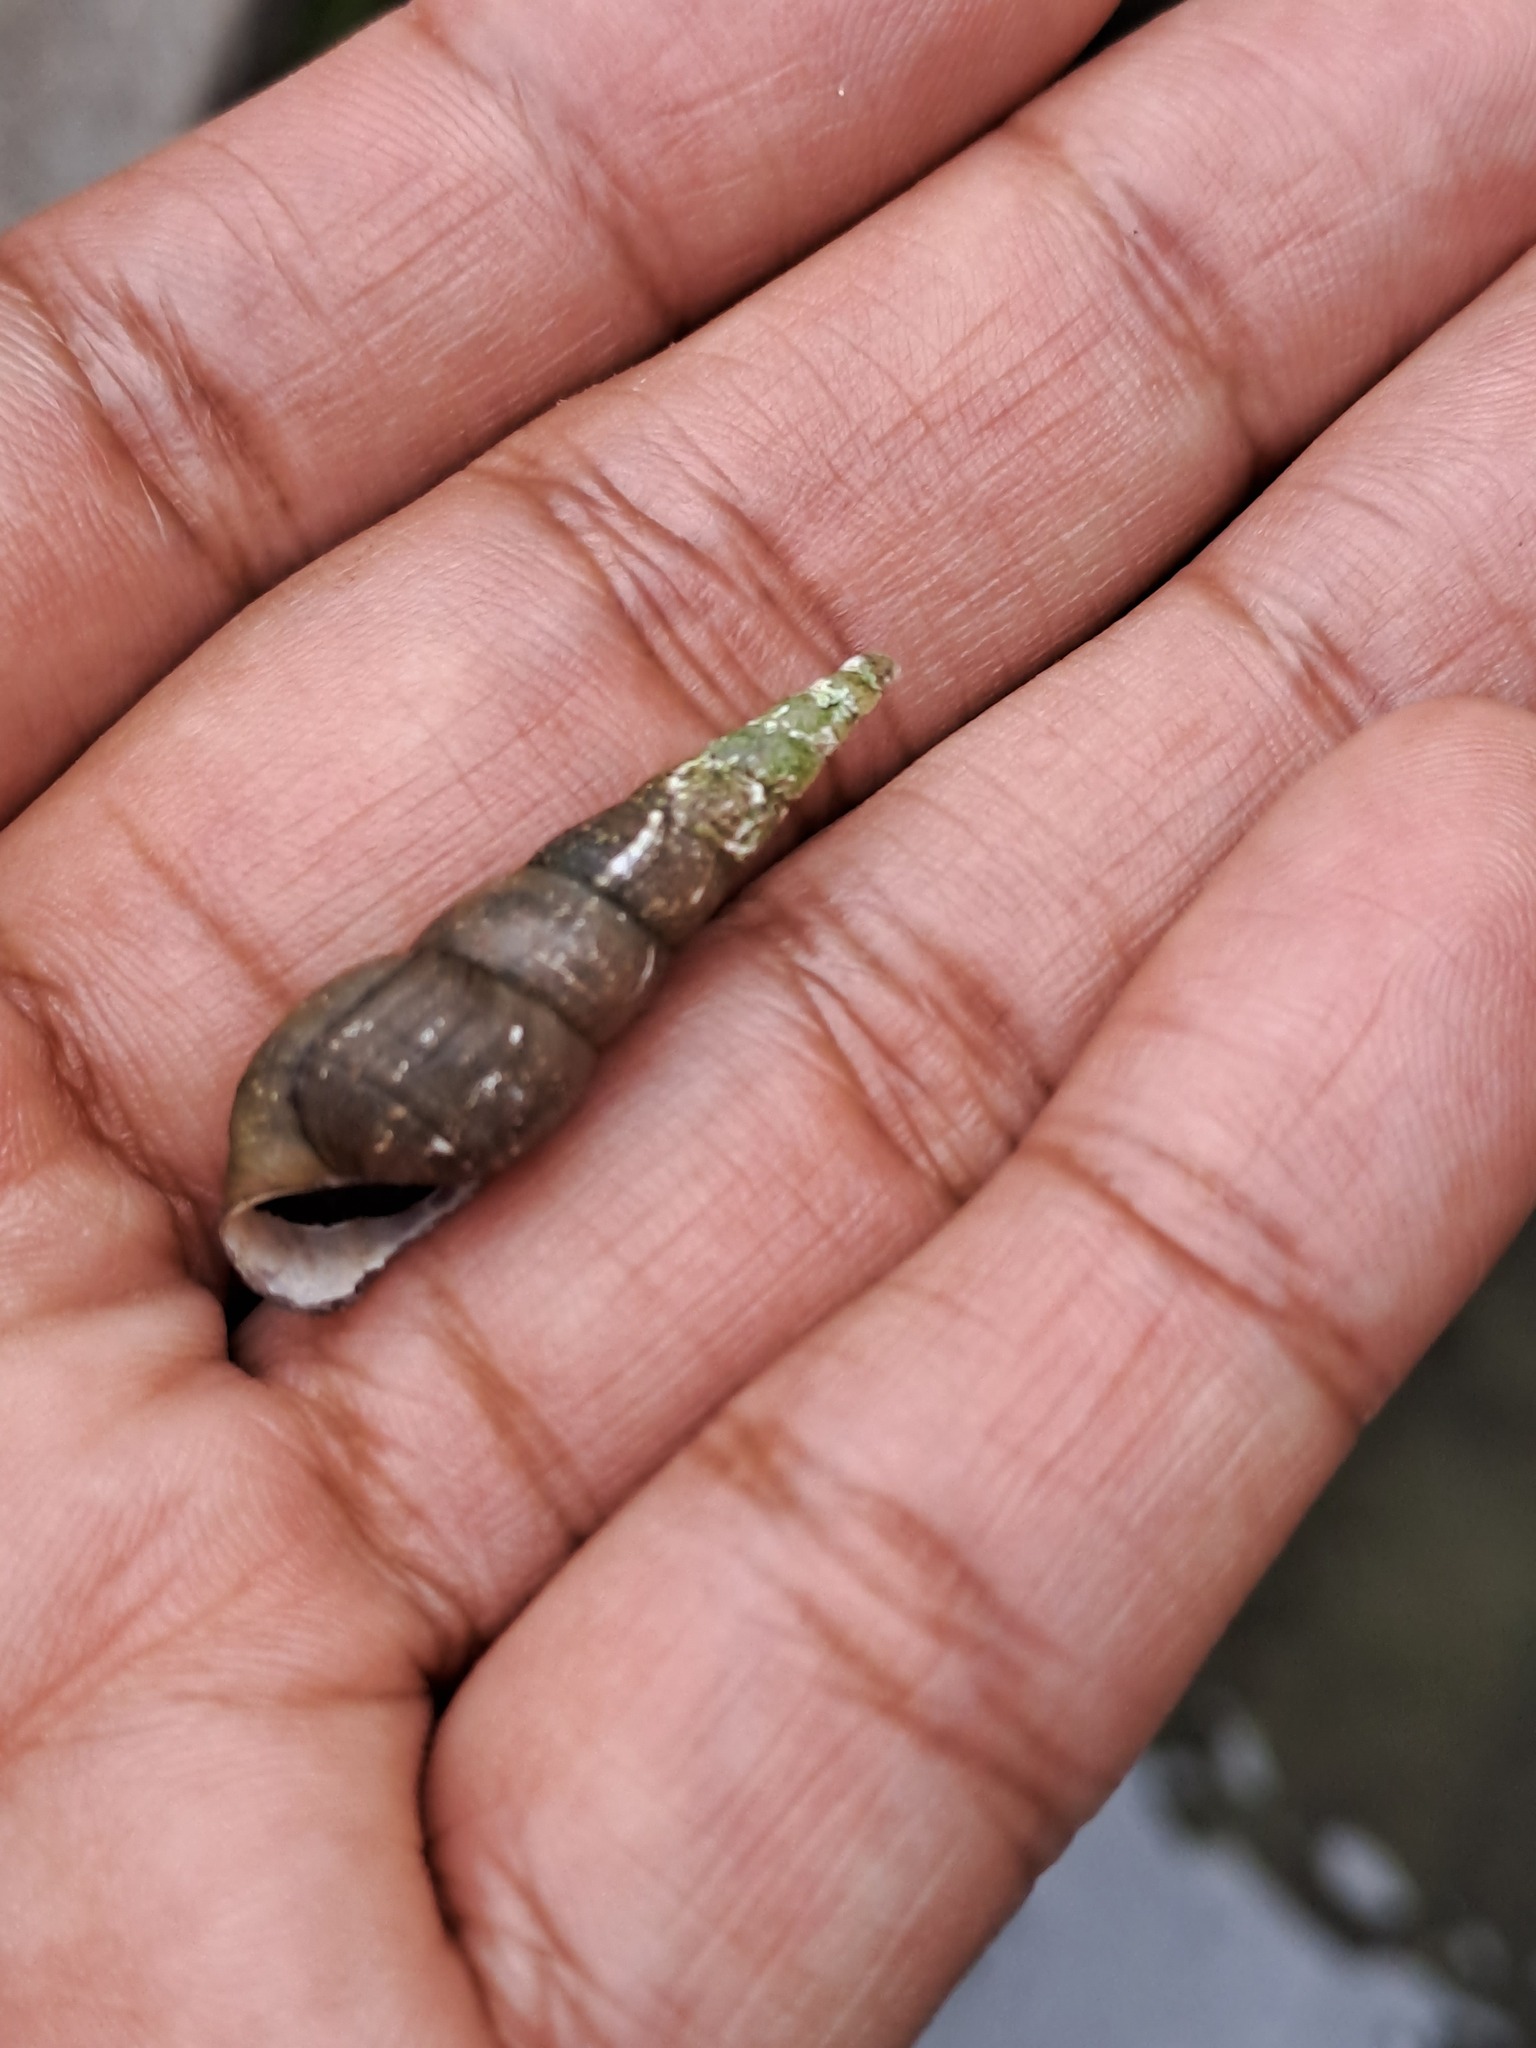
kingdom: Animalia
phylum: Mollusca
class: Gastropoda
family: Thiaridae
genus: Melanoides
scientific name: Melanoides tuberculata
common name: Red-rim melania
